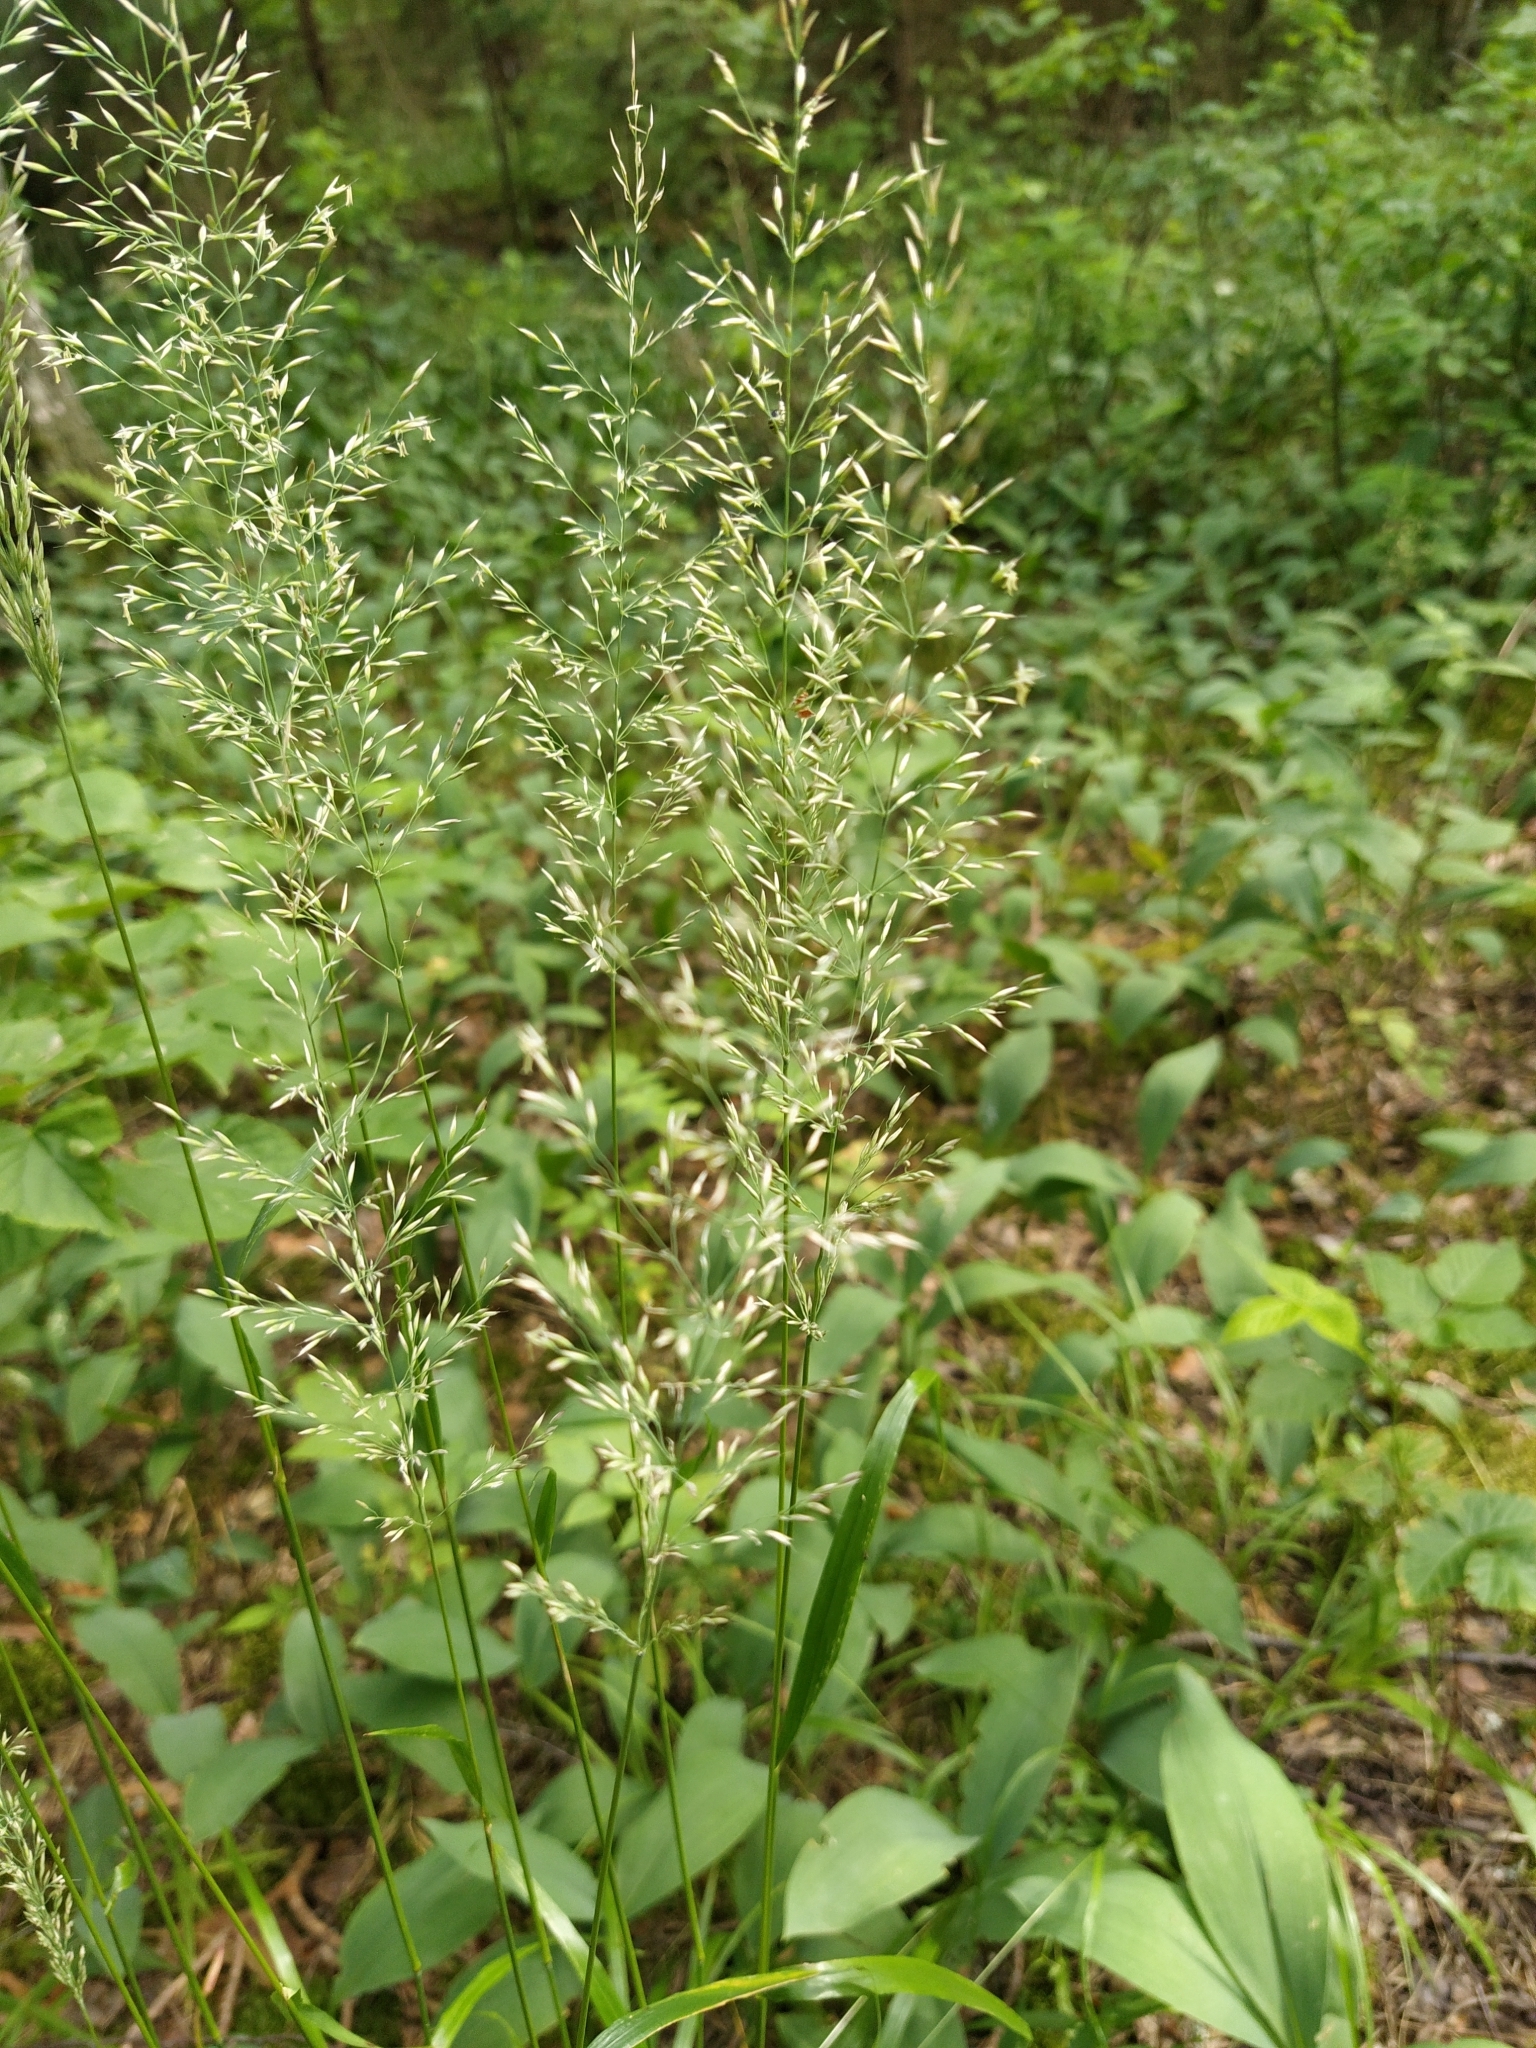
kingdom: Plantae
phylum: Tracheophyta
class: Liliopsida
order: Poales
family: Poaceae
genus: Calamagrostis
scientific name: Calamagrostis arundinacea
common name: Metskastik
